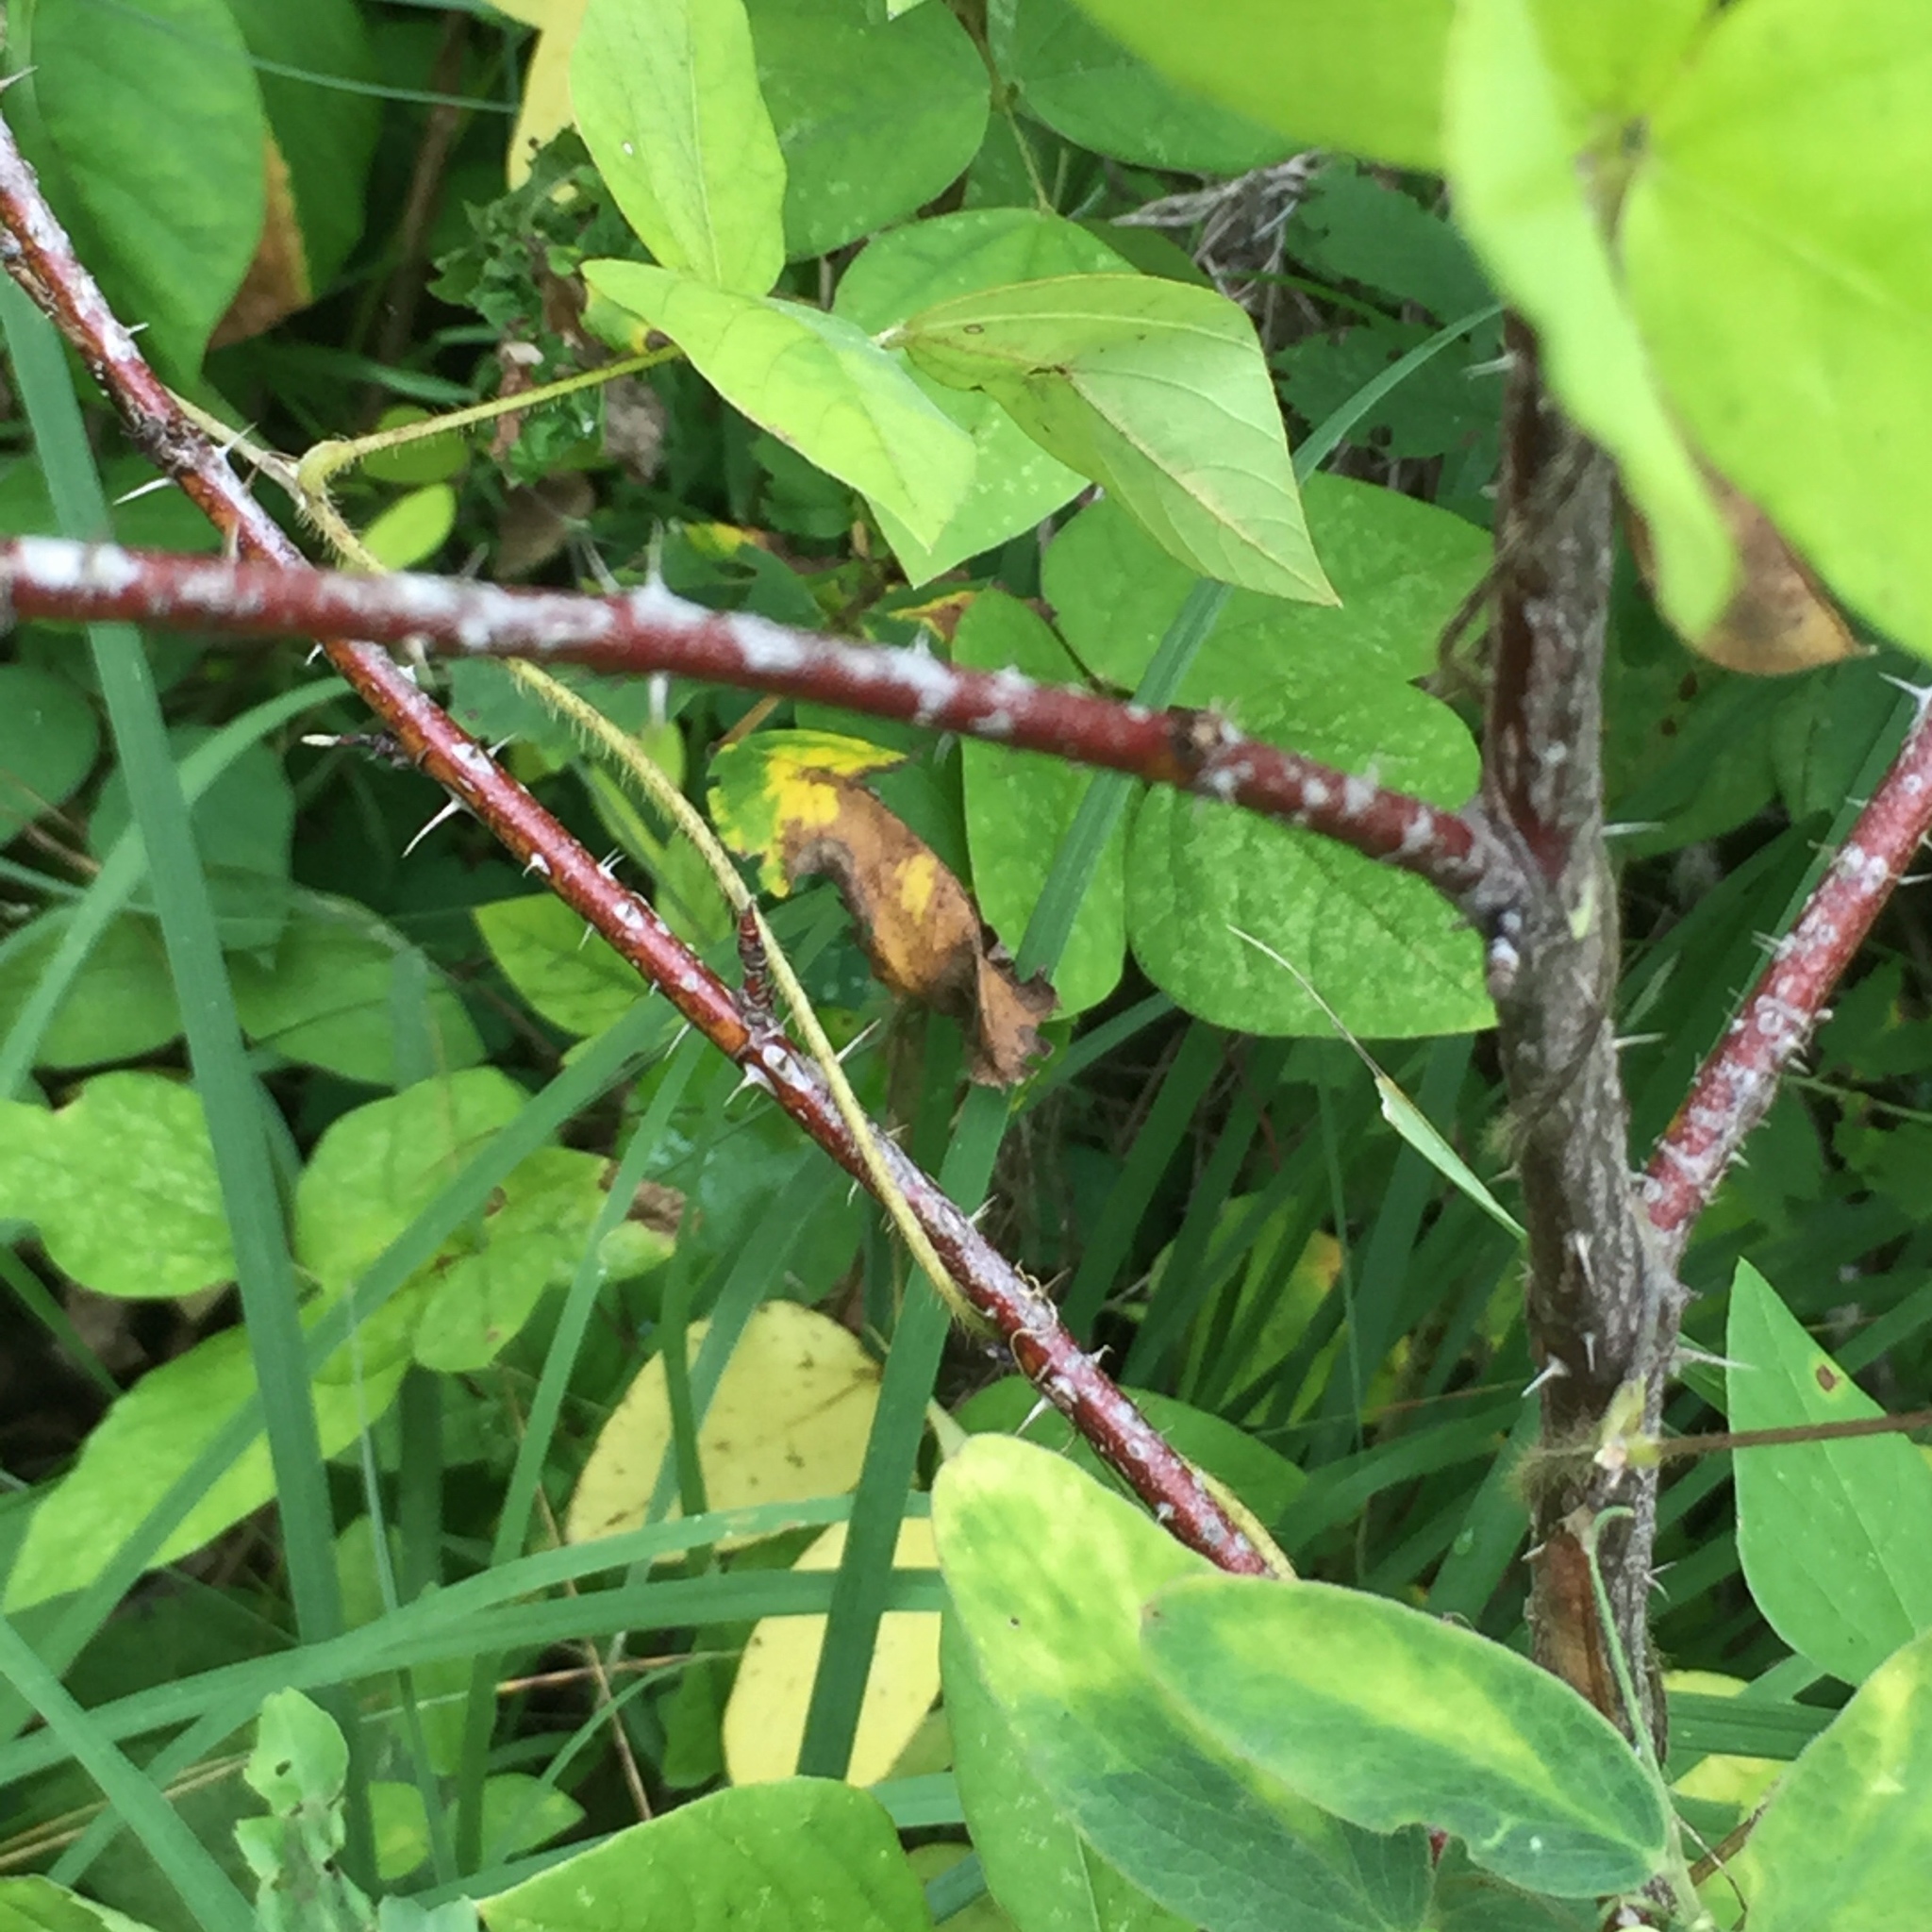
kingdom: Plantae
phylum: Tracheophyta
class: Magnoliopsida
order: Rosales
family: Rosaceae
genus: Rosa
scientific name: Rosa woodsii
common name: Woods's rose
